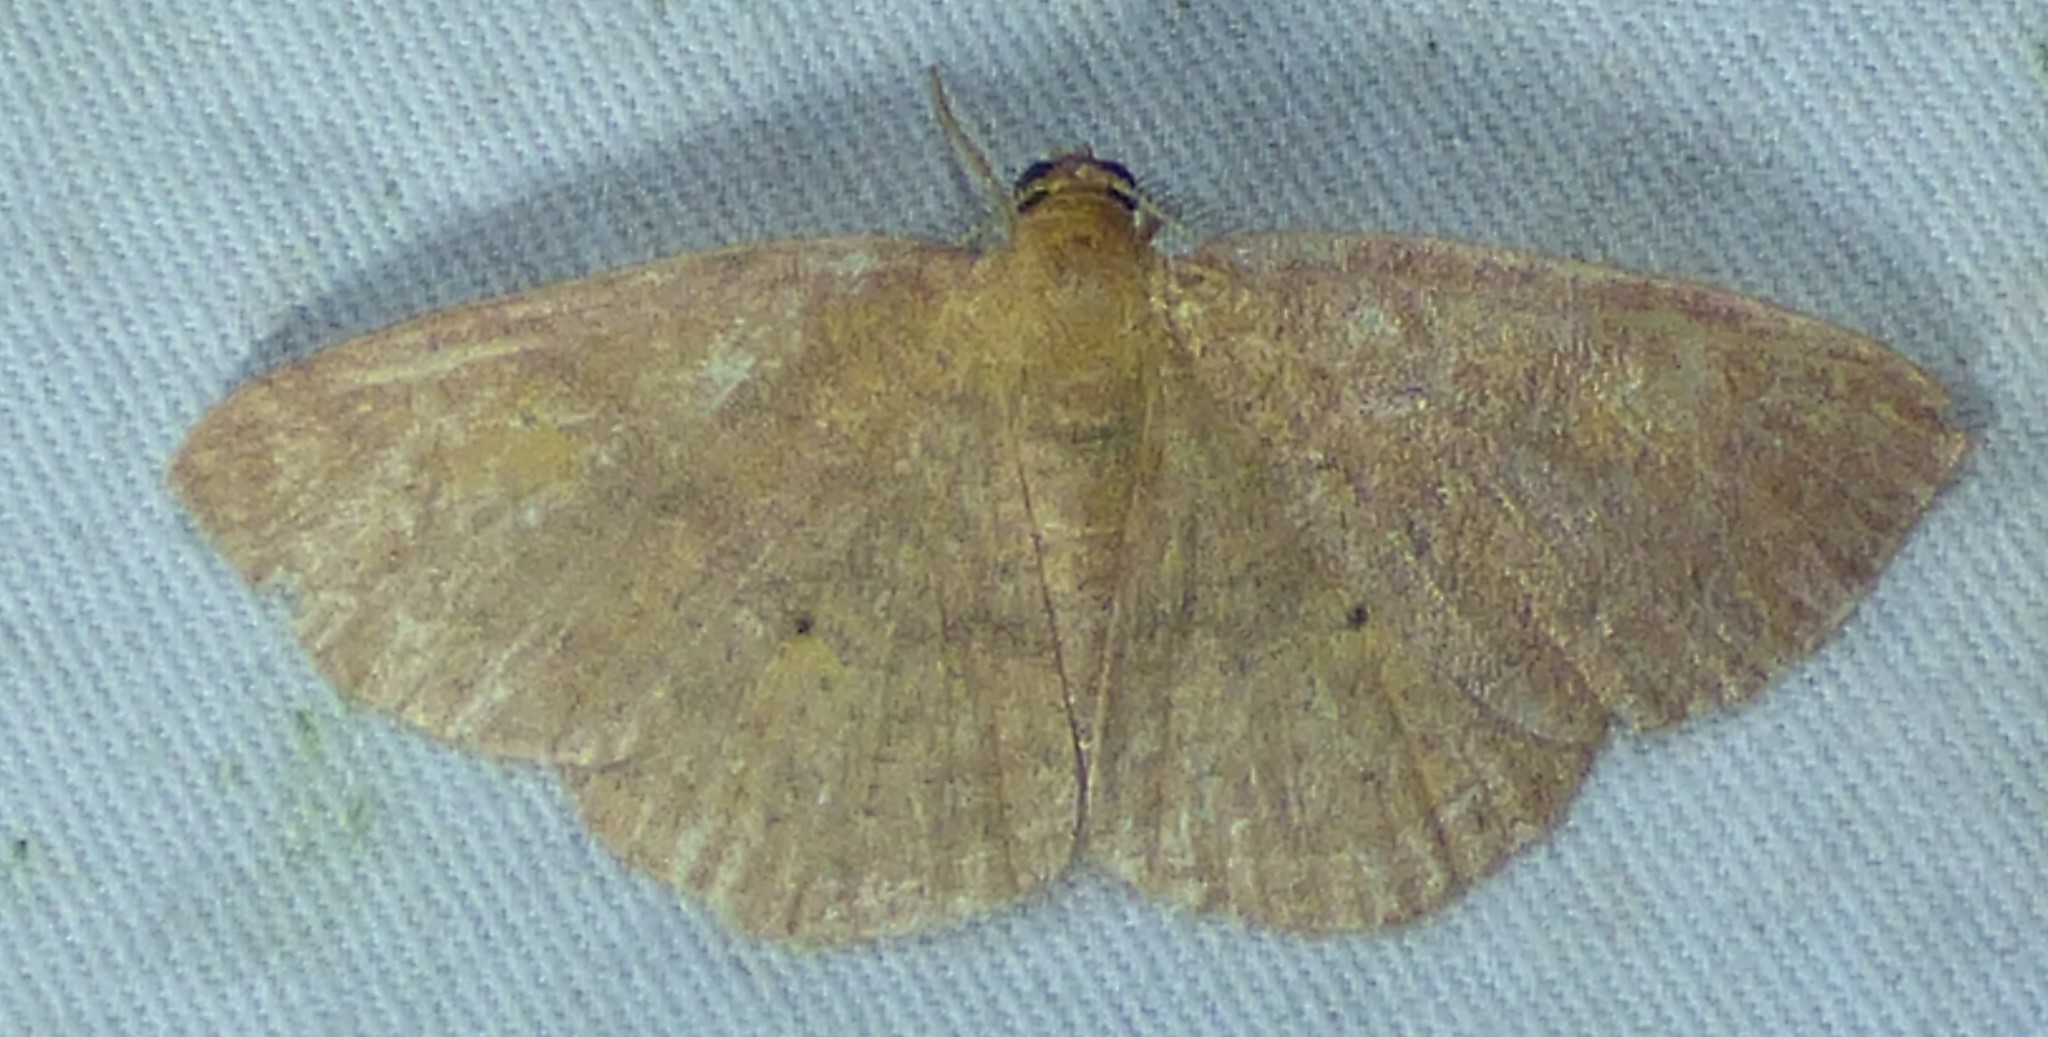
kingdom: Animalia
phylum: Arthropoda
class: Insecta
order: Lepidoptera
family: Geometridae
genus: Ilexia
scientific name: Ilexia intractata
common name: Black-dotted ruddy moth
